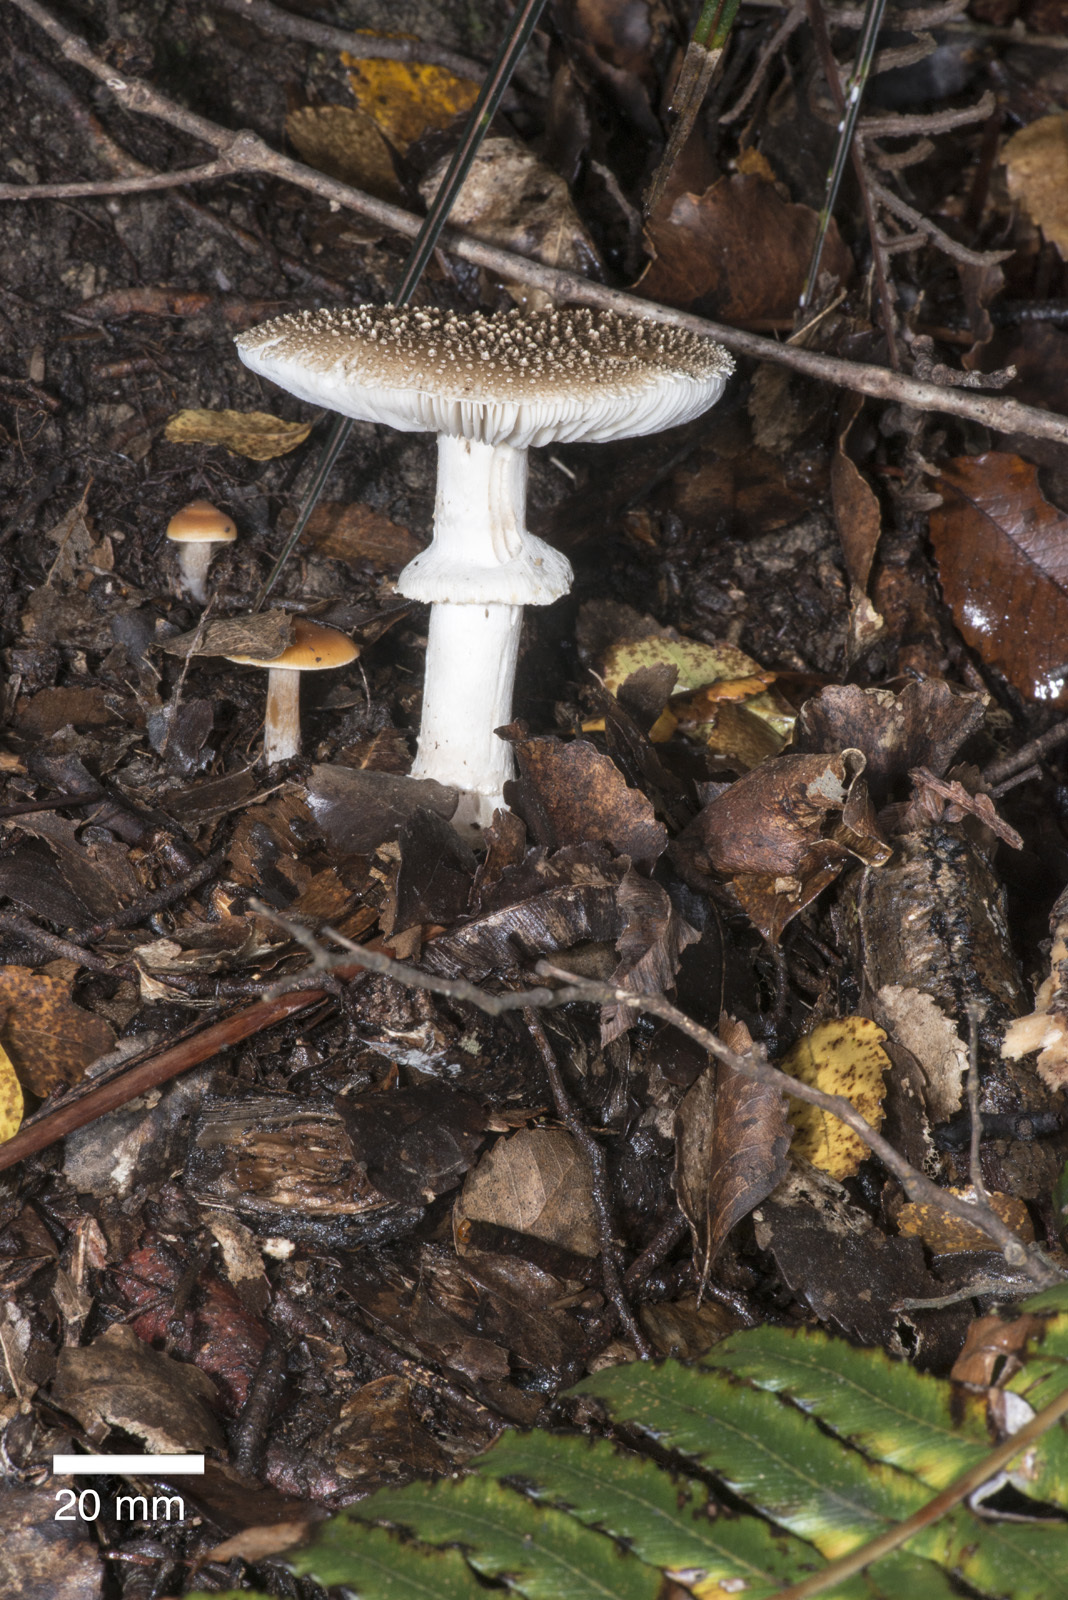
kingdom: Fungi
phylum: Basidiomycota
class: Agaricomycetes
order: Agaricales
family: Amanitaceae
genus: Amanita
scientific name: Amanita australis
